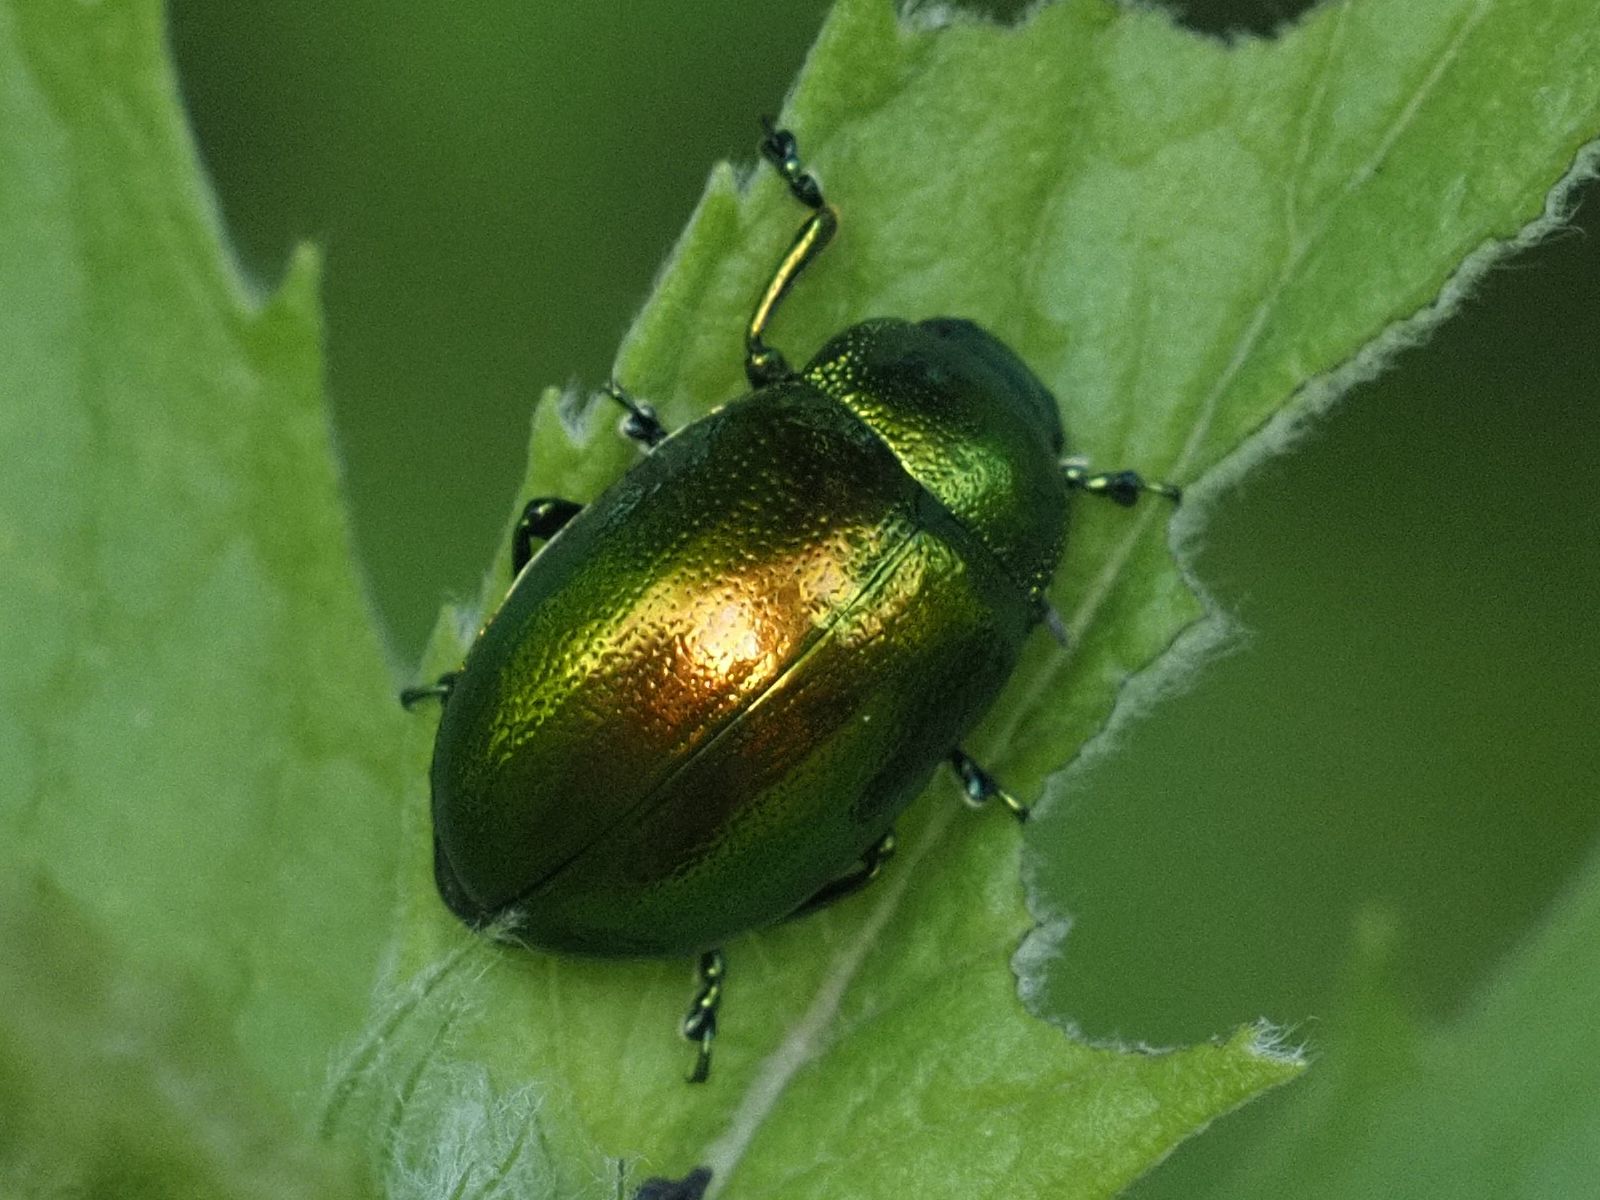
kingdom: Animalia
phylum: Arthropoda
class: Insecta
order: Coleoptera
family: Chrysomelidae
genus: Chrysolina
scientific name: Chrysolina herbacea
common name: Mint leaf beatle
